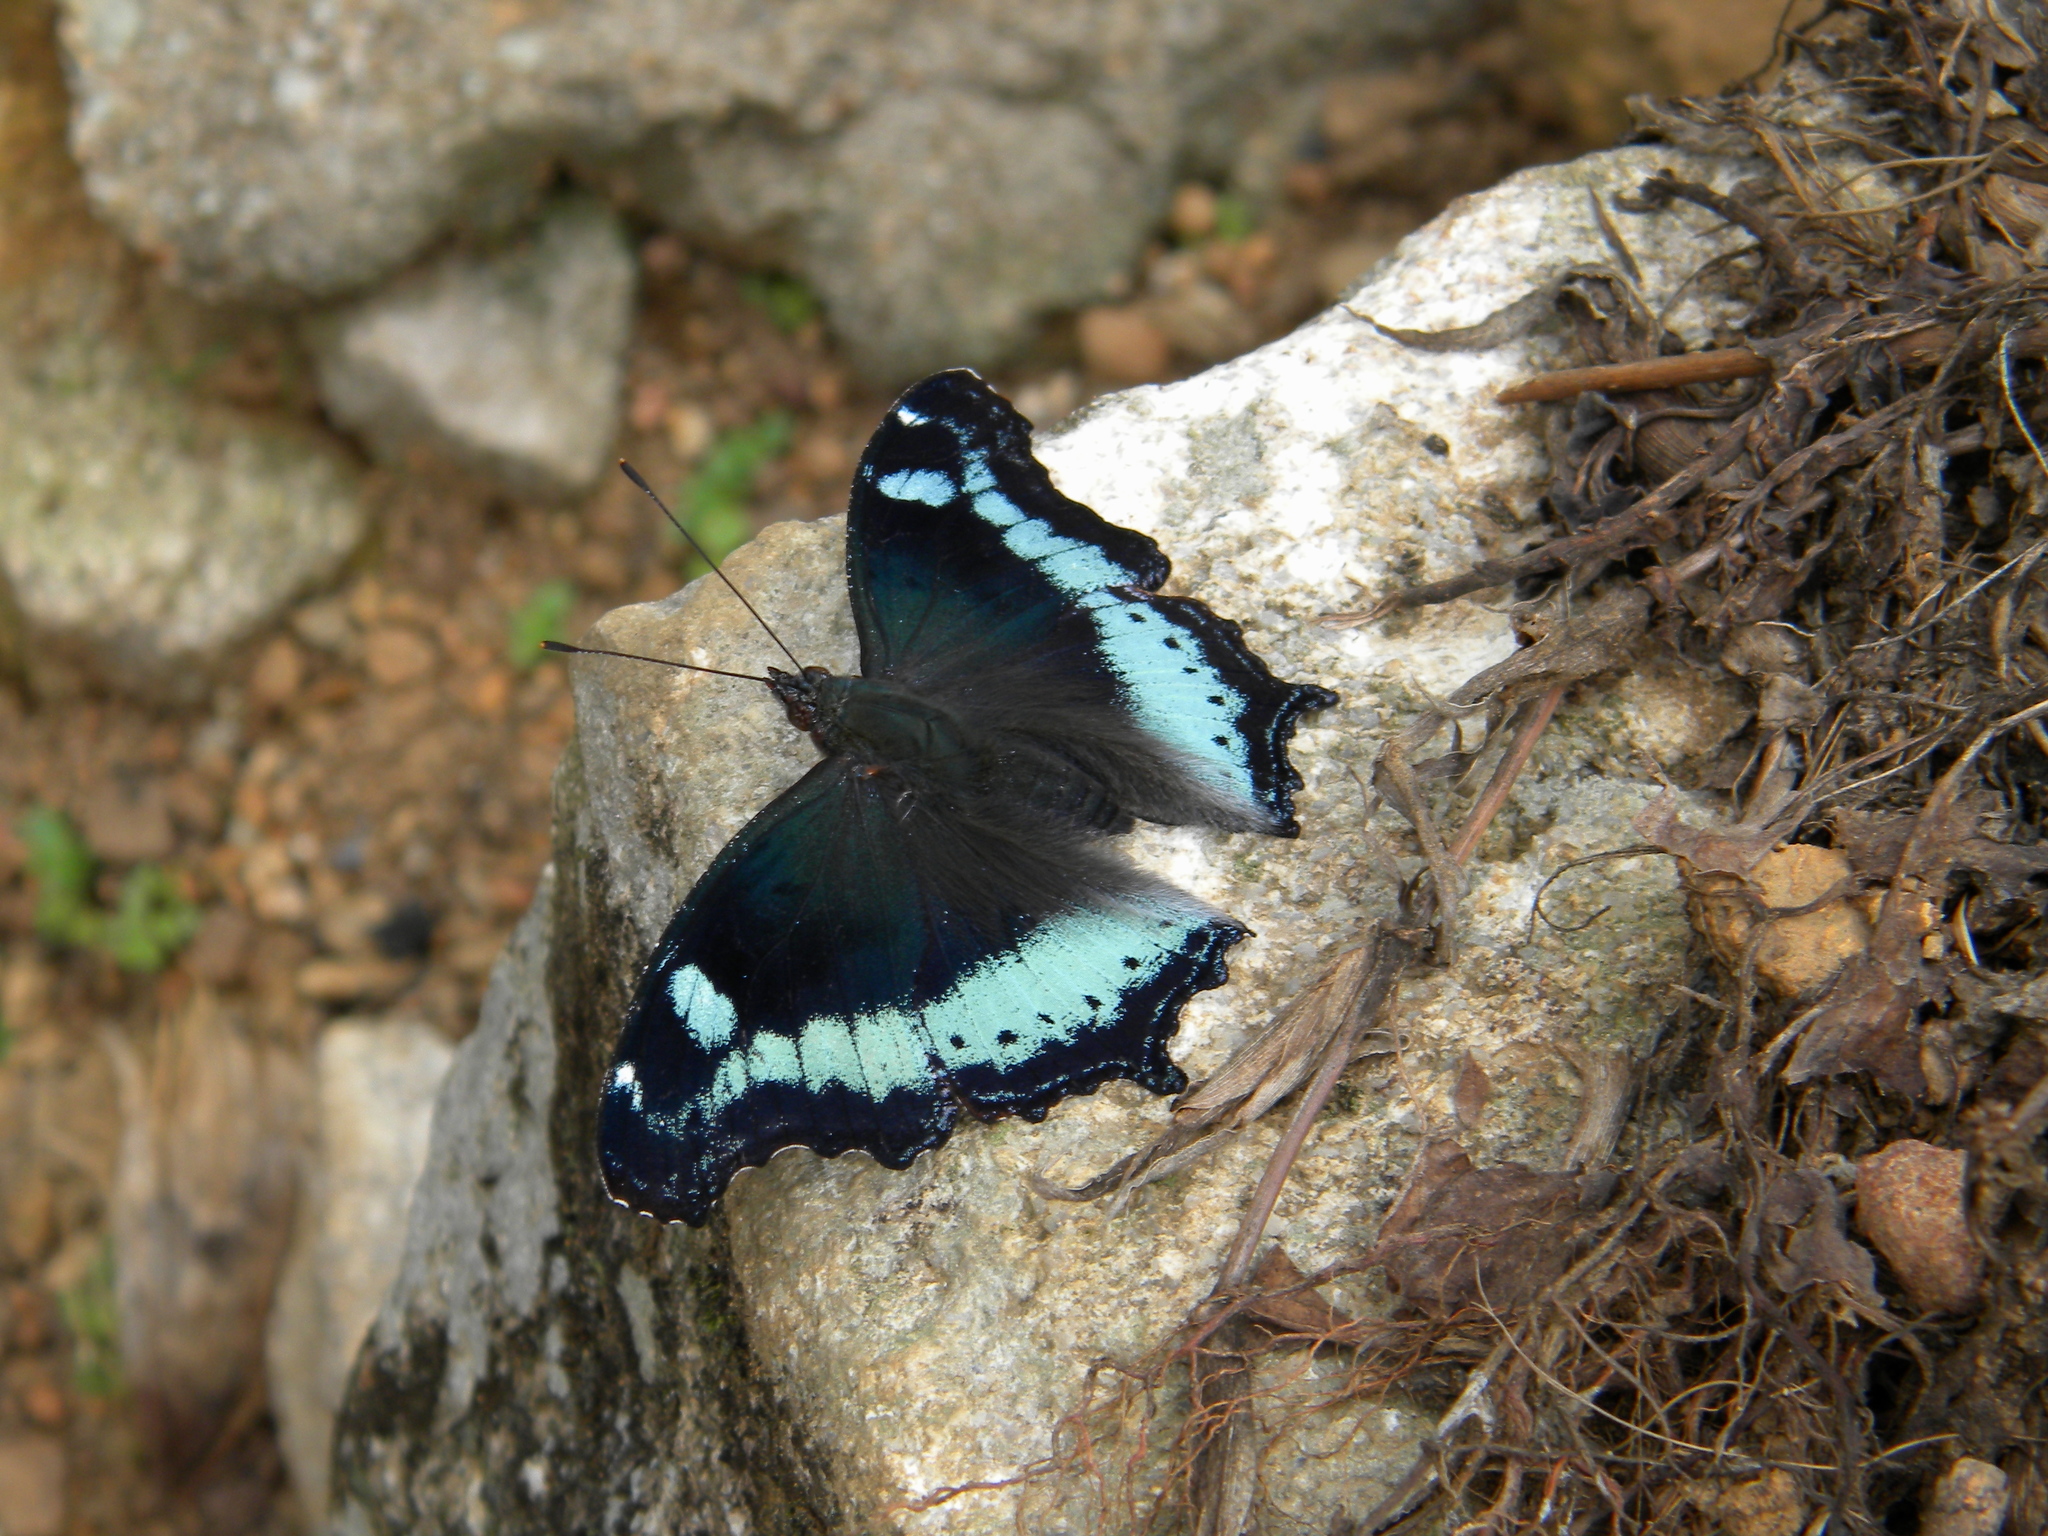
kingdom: Animalia
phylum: Arthropoda
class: Insecta
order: Lepidoptera
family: Nymphalidae
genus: Vanessa
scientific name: Vanessa Kaniska canace
